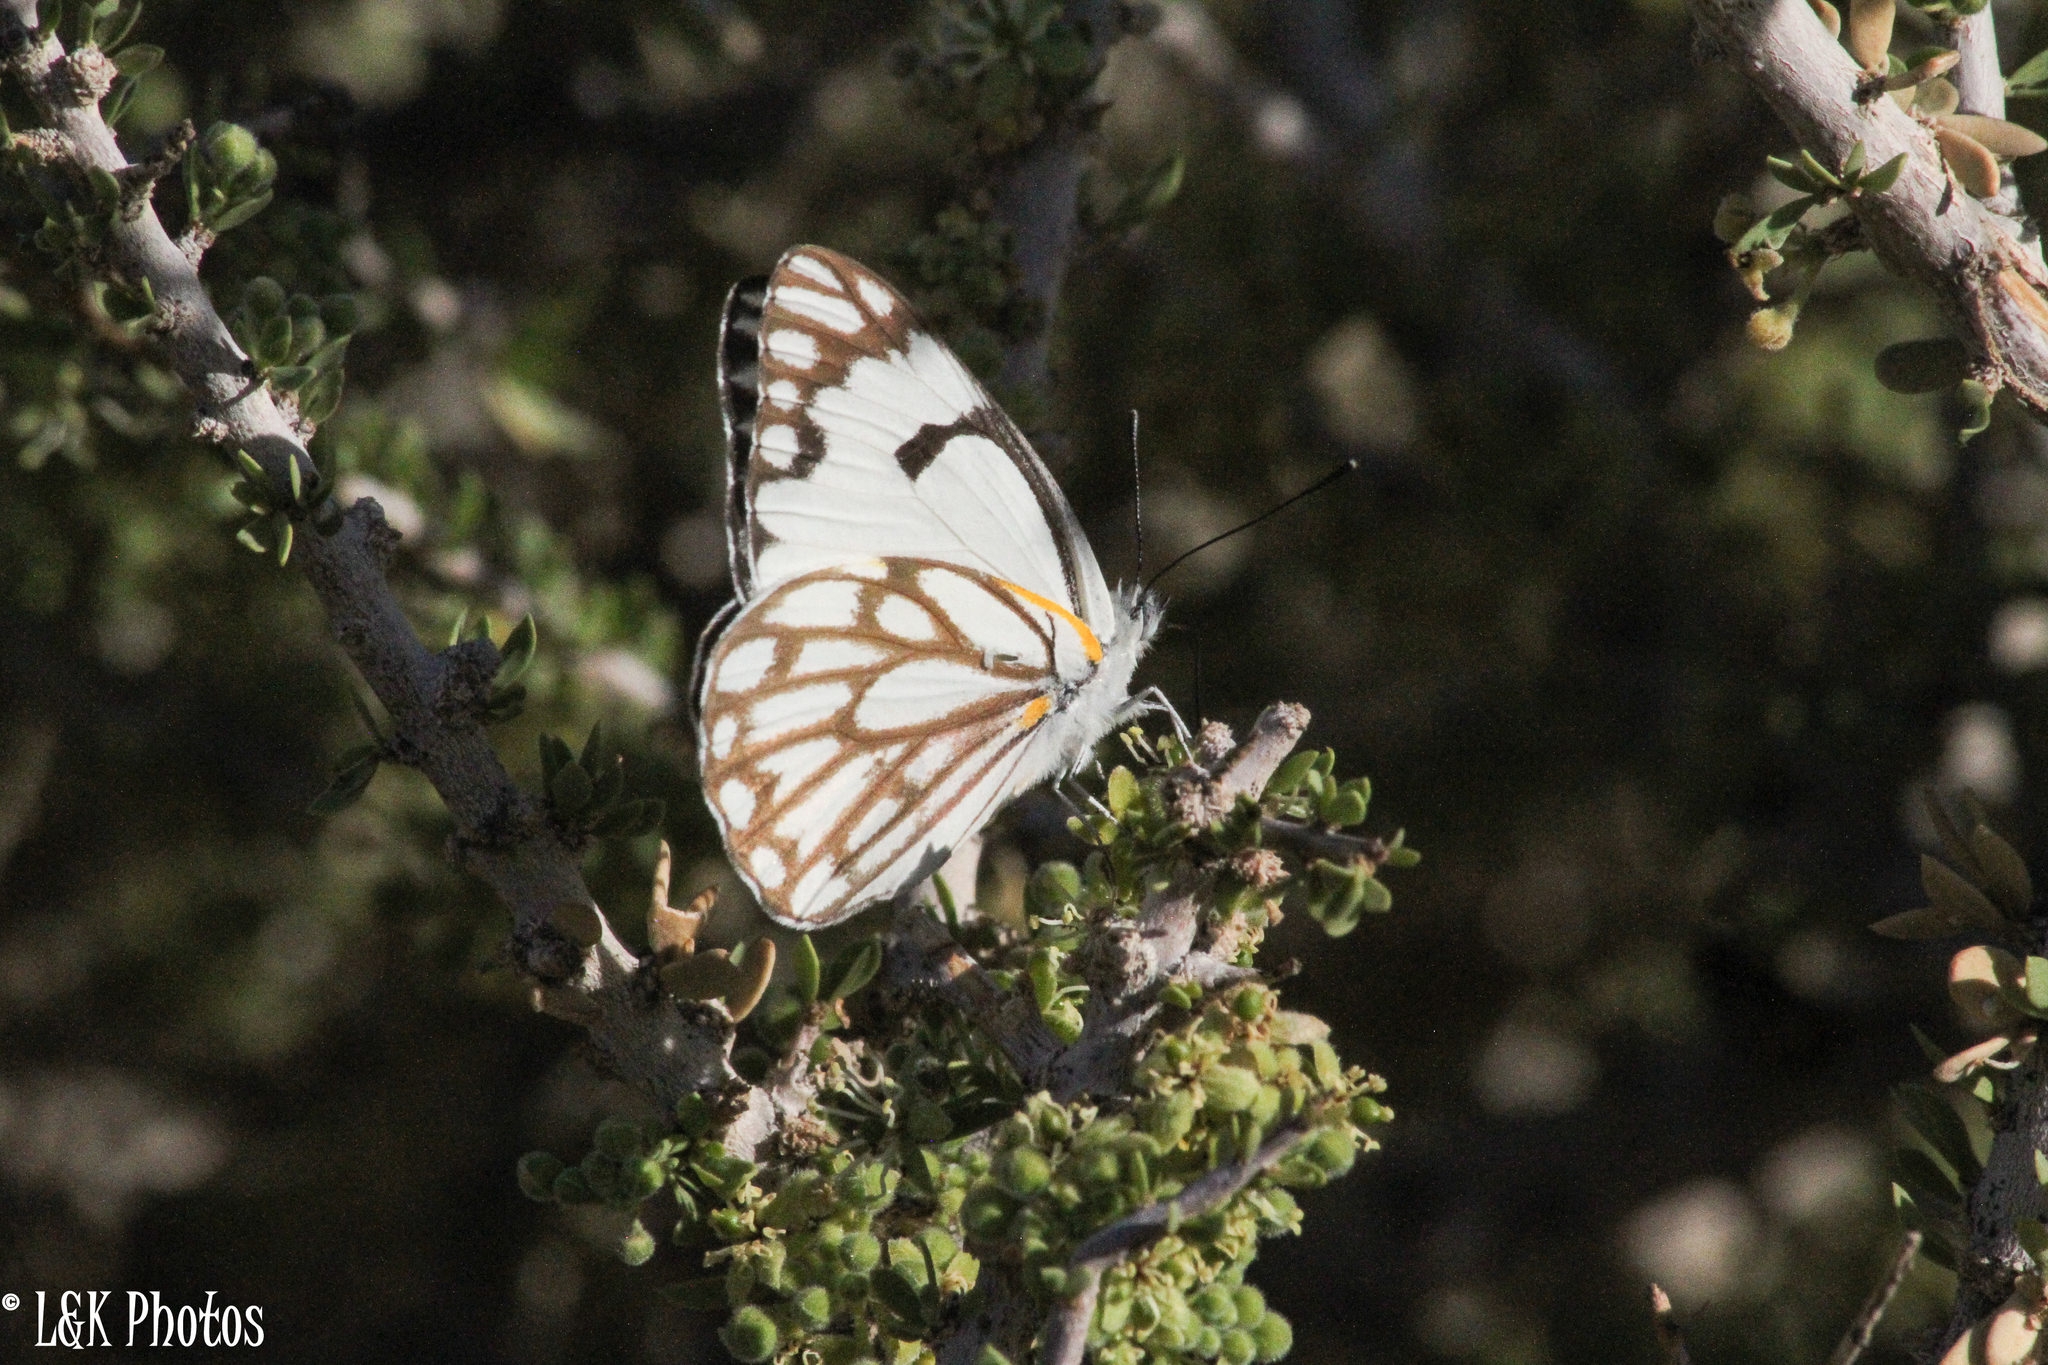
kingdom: Animalia
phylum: Arthropoda
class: Insecta
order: Lepidoptera
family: Pieridae
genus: Belenois
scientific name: Belenois aurota
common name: Brown-veined white
